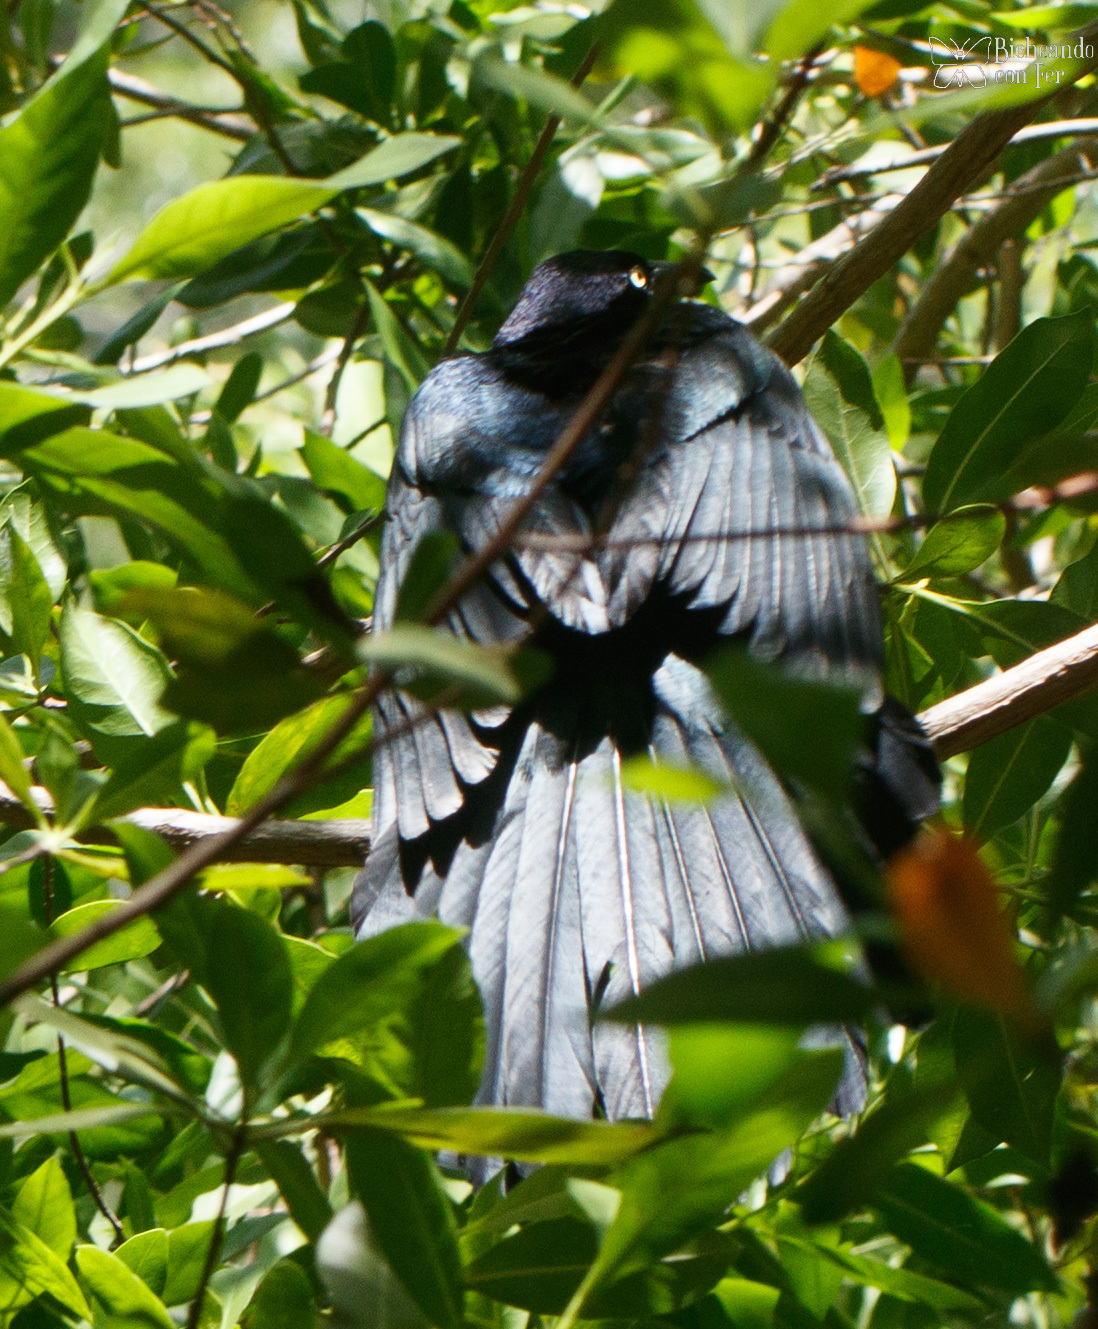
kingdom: Animalia
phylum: Chordata
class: Aves
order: Passeriformes
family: Icteridae
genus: Quiscalus
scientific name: Quiscalus mexicanus
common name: Great-tailed grackle
